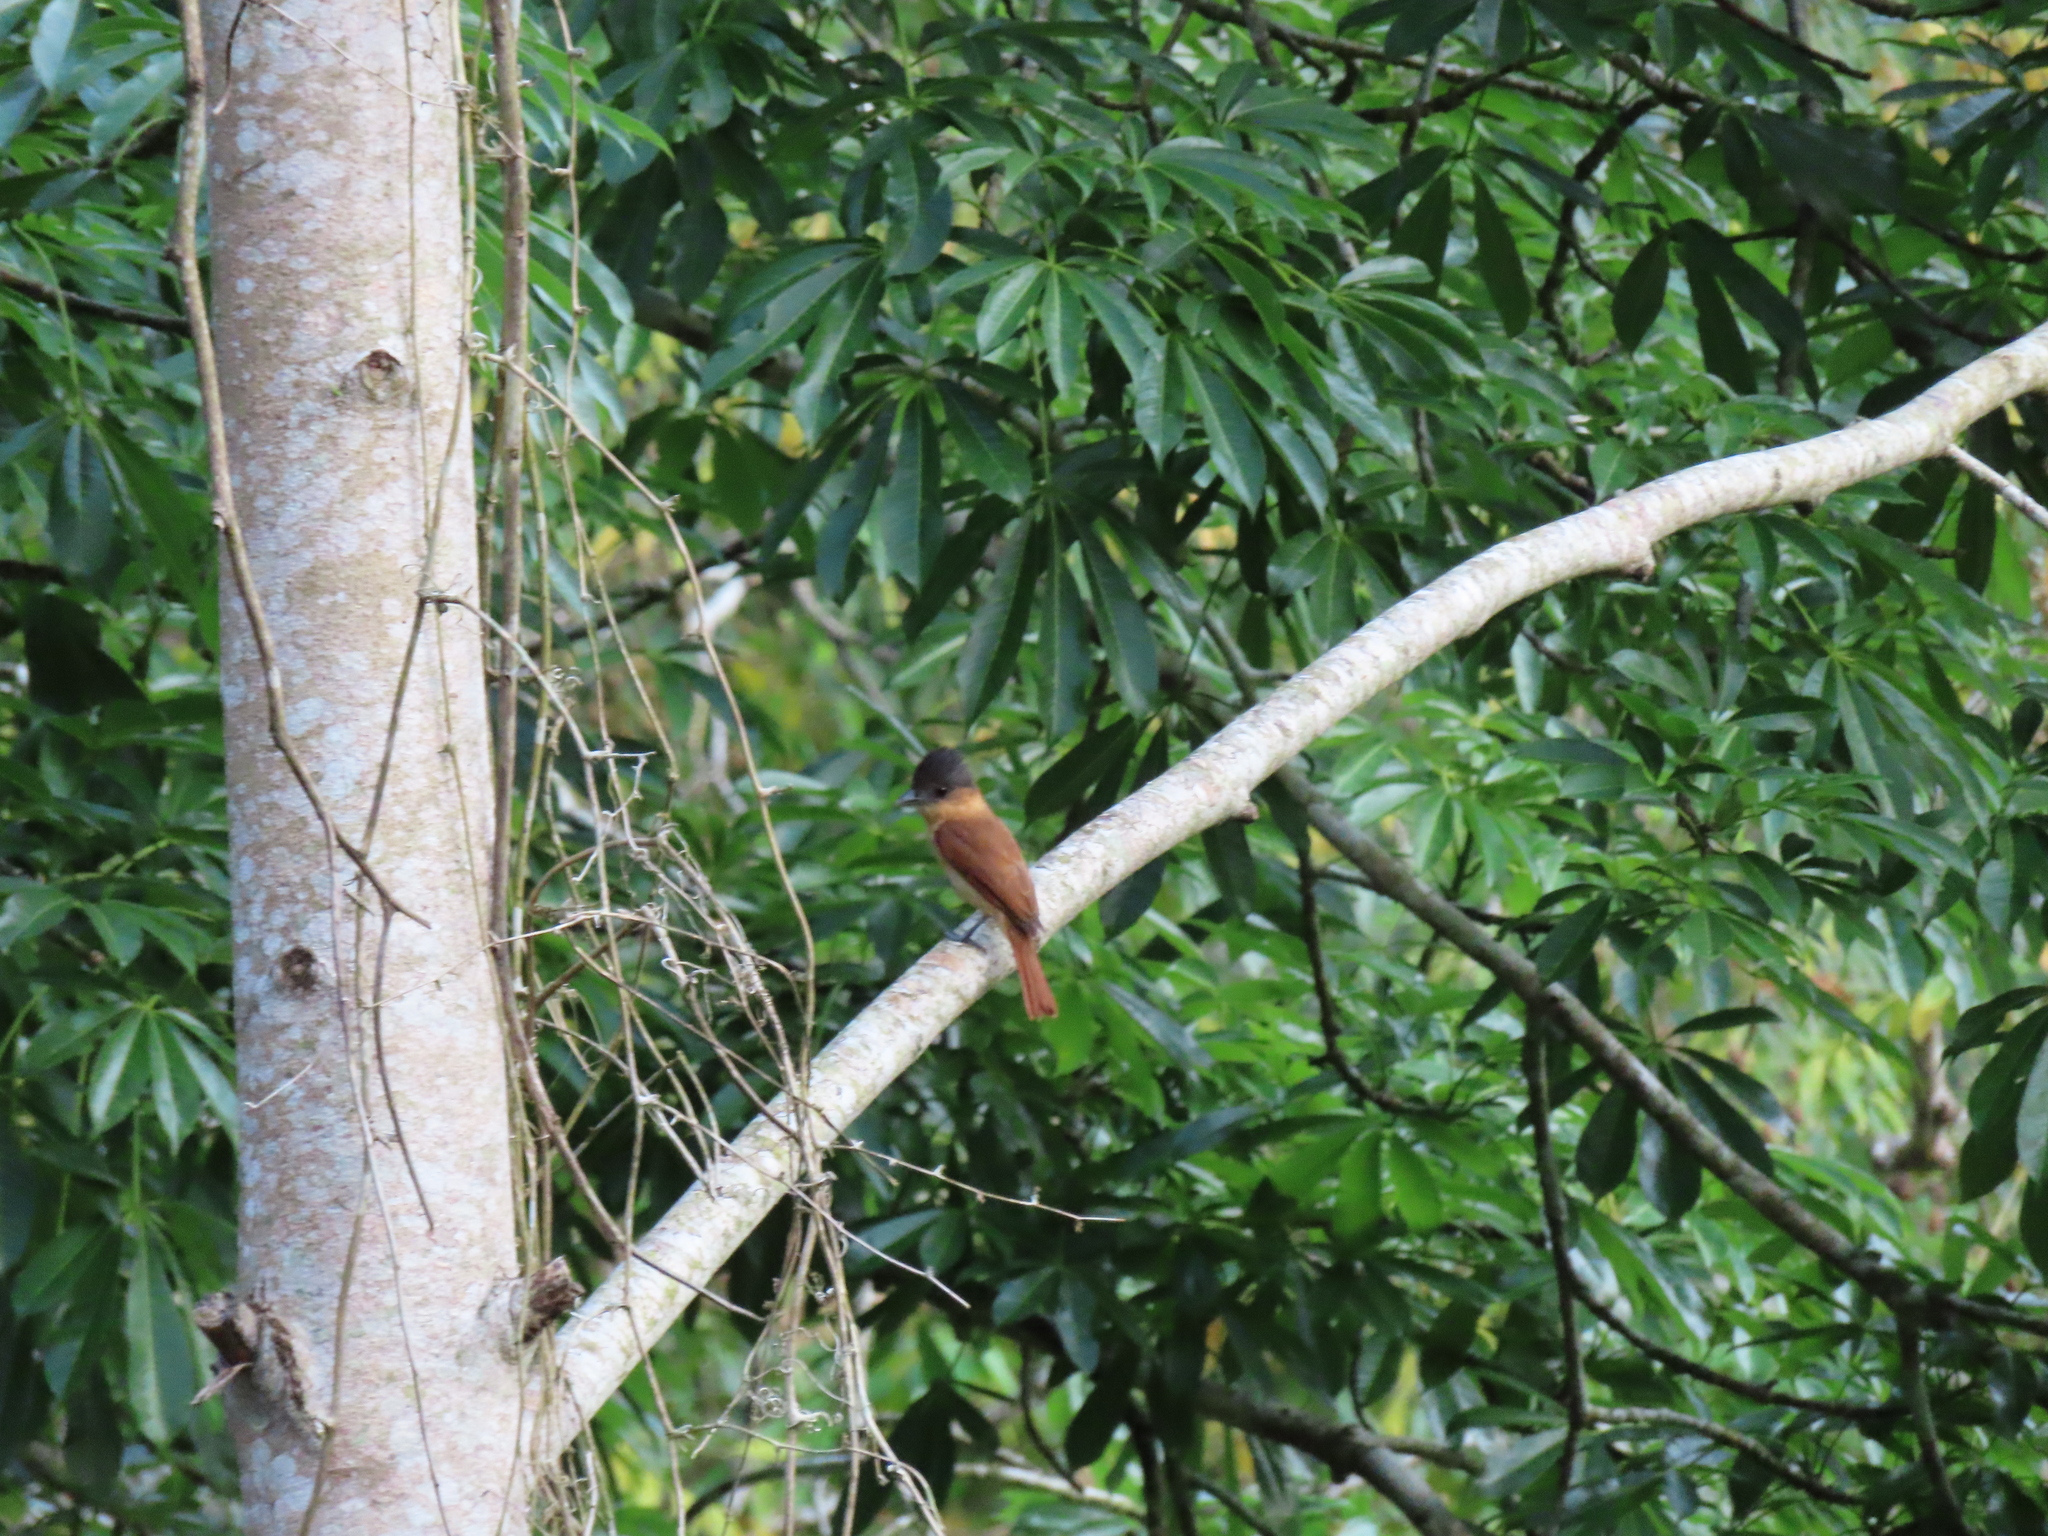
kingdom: Animalia
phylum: Chordata
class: Aves
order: Passeriformes
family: Cotingidae
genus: Pachyramphus
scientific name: Pachyramphus aglaiae
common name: Rose-throated becard
